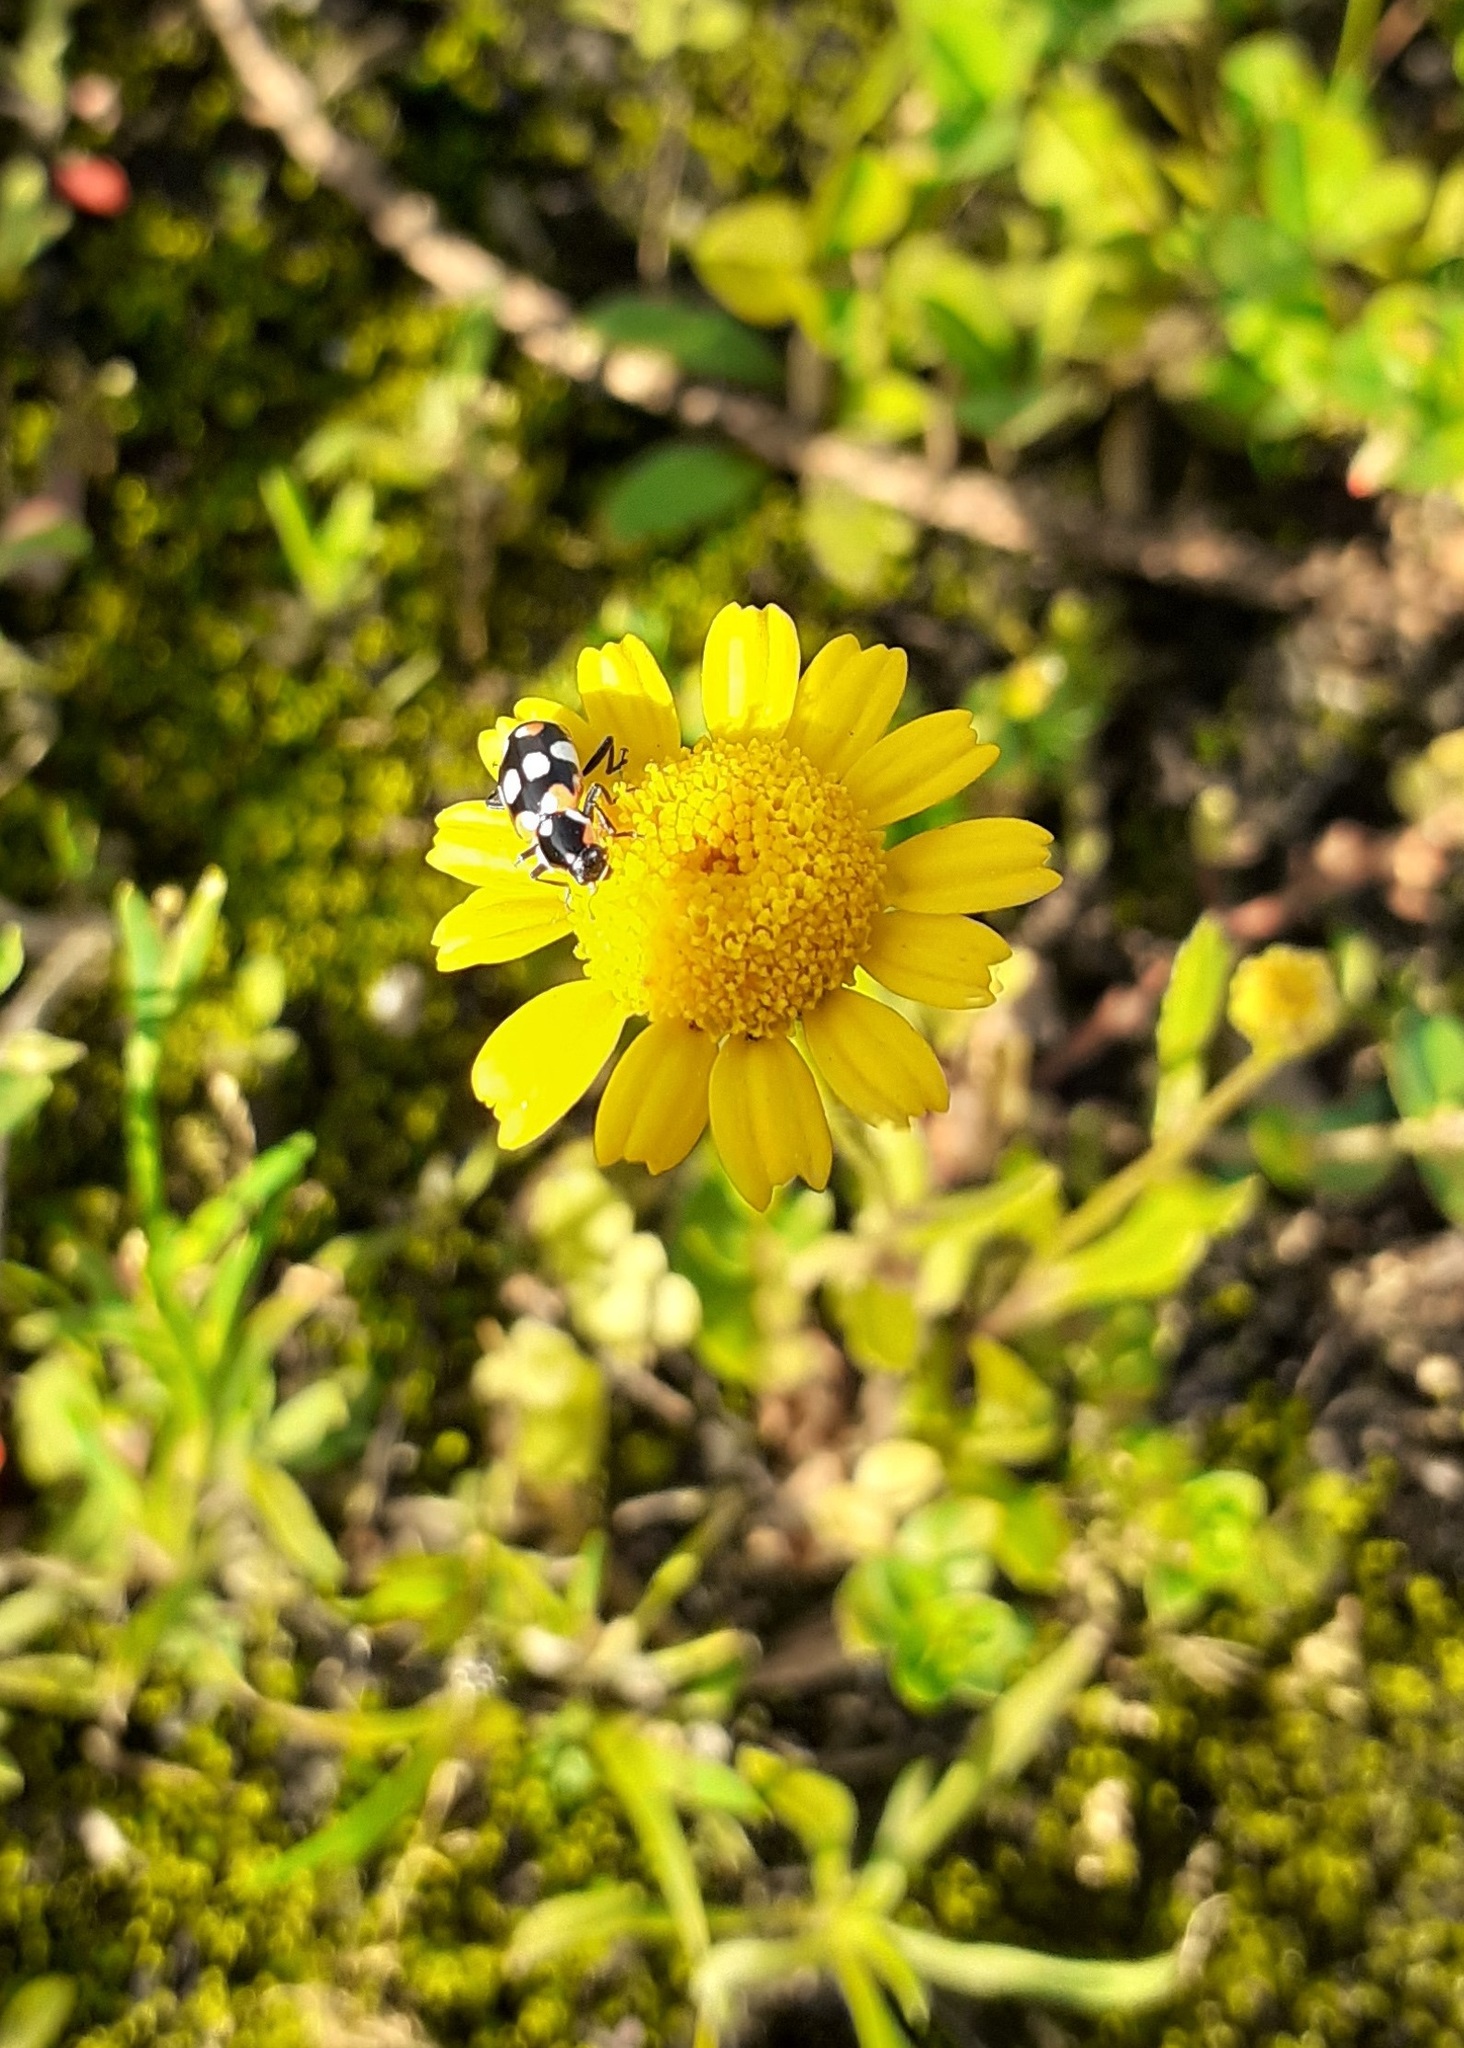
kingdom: Animalia
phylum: Arthropoda
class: Insecta
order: Coleoptera
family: Coccinellidae
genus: Eriopis
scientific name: Eriopis connexa
